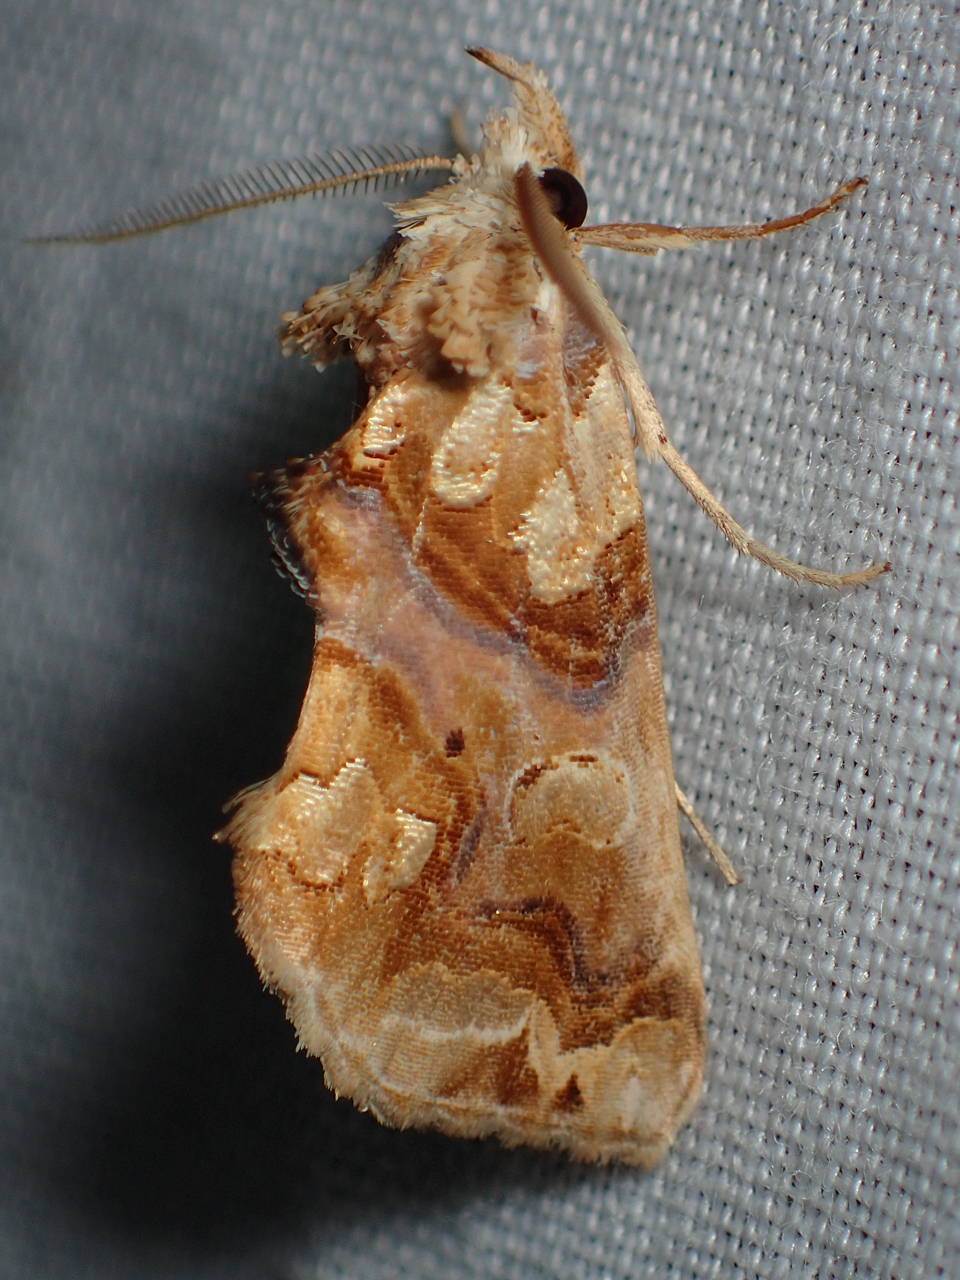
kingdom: Animalia
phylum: Arthropoda
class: Insecta
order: Lepidoptera
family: Erebidae
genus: Plusiodonta
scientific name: Plusiodonta compressipalpis
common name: Moonseed moth
